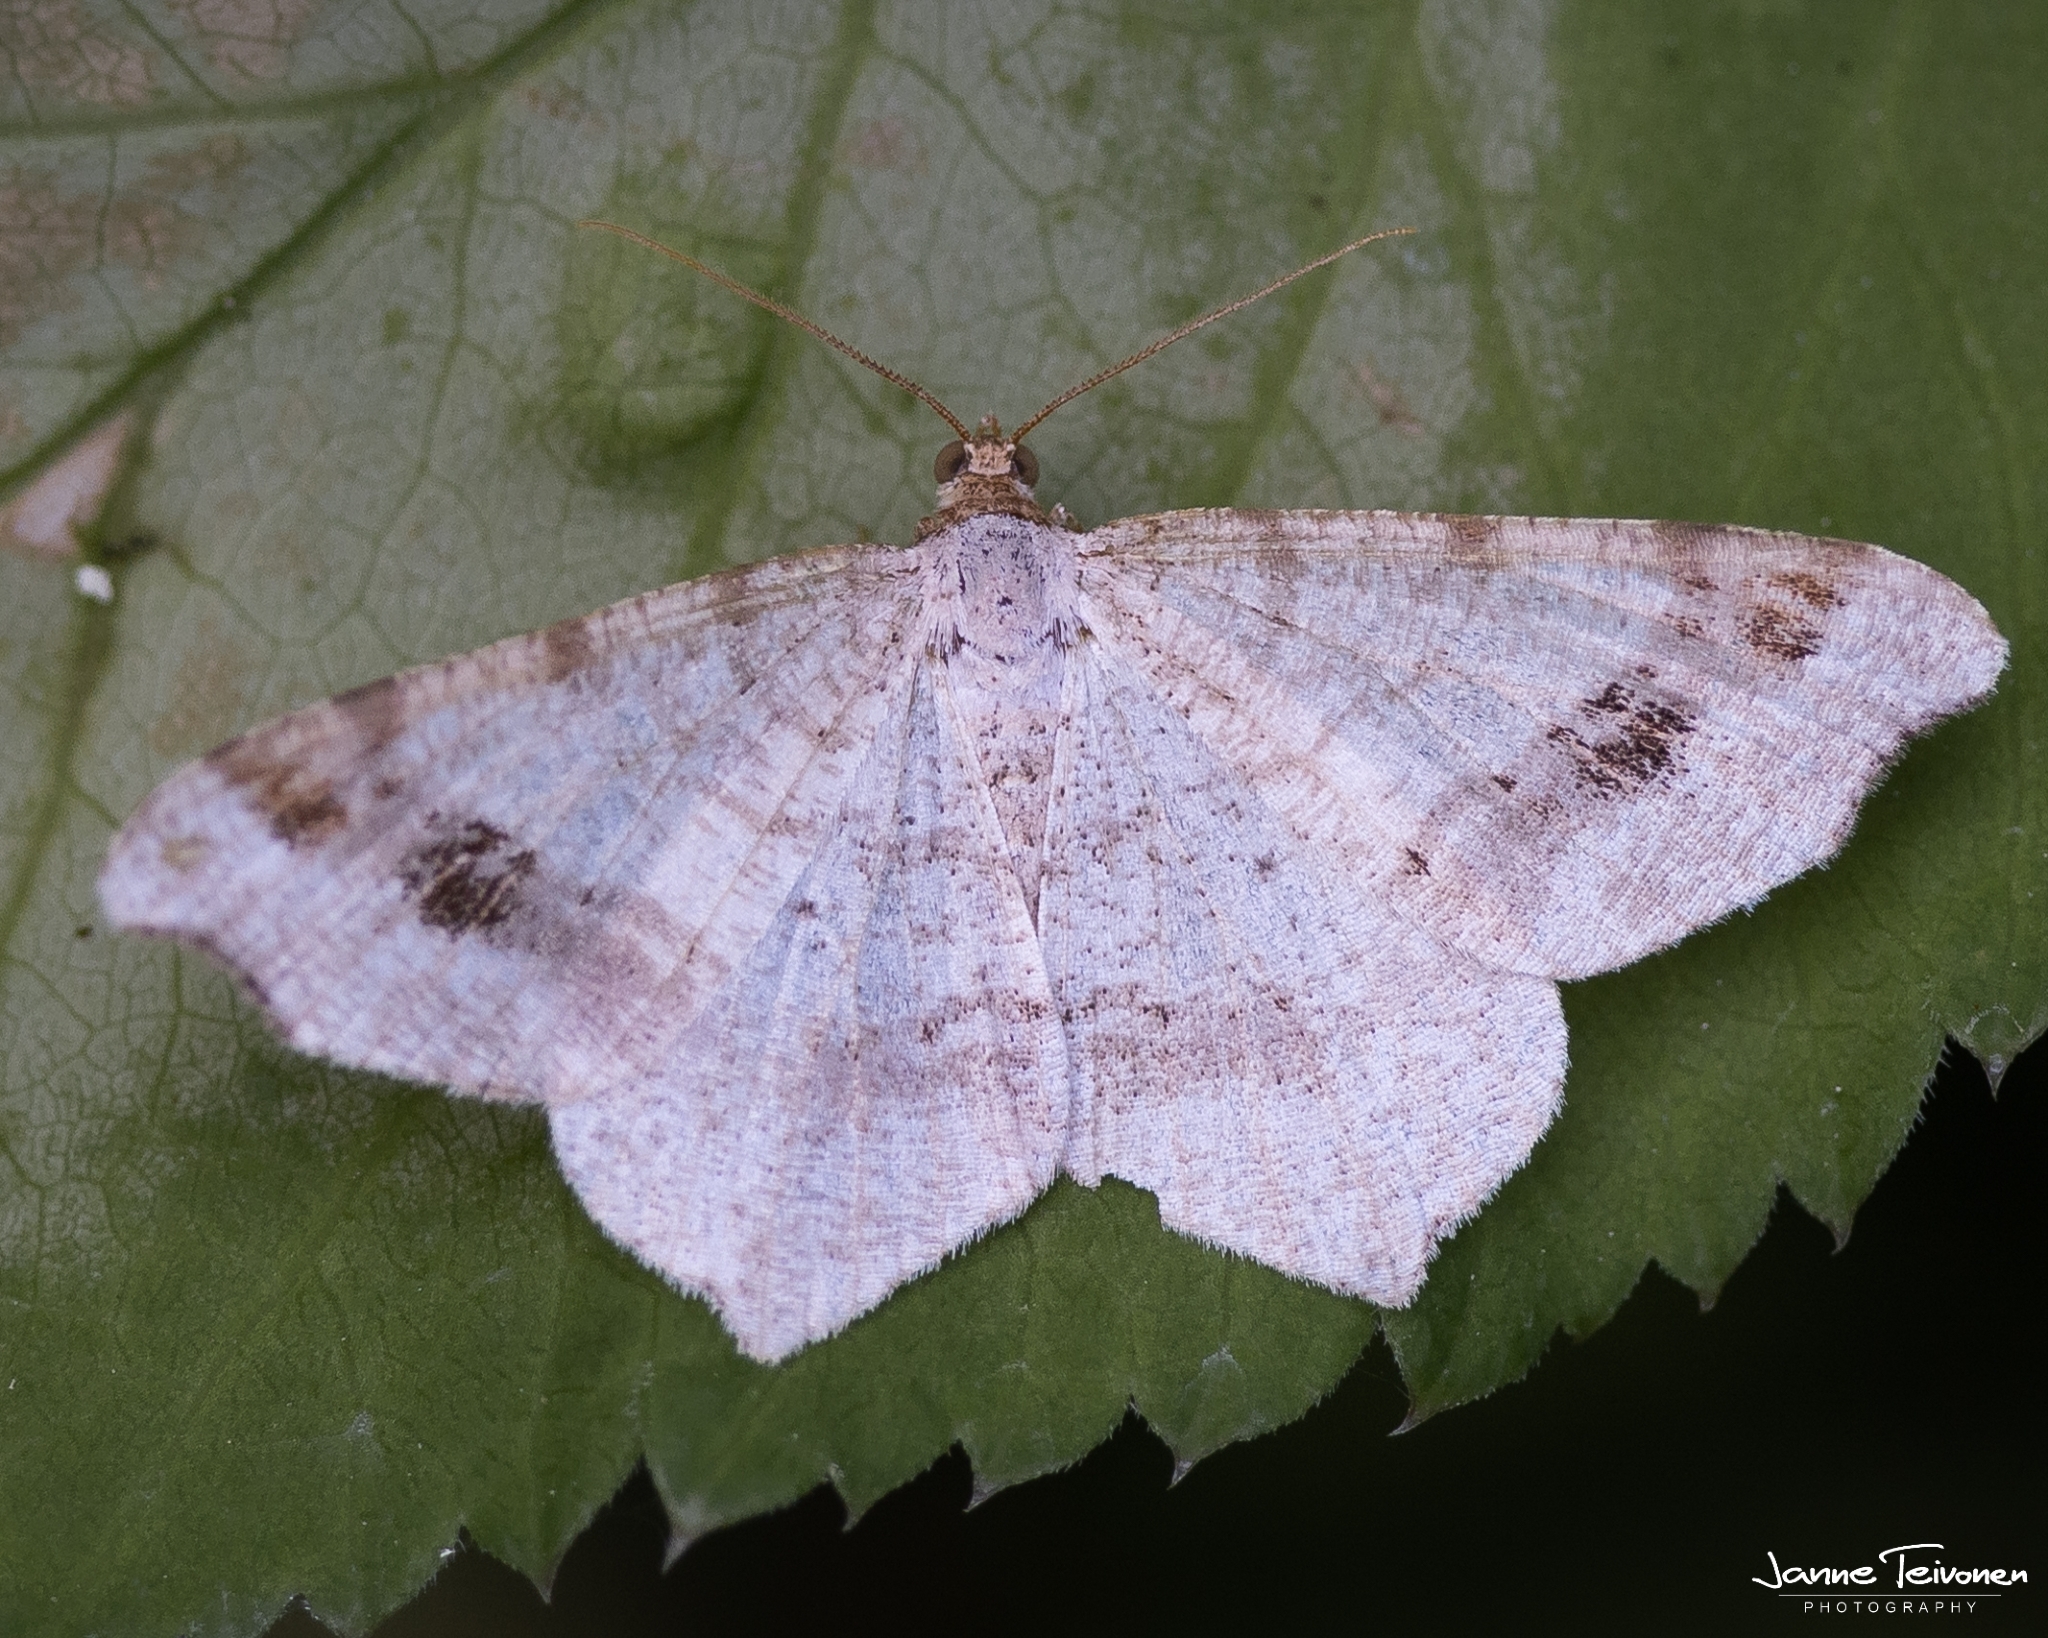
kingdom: Animalia
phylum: Arthropoda
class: Insecta
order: Lepidoptera
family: Geometridae
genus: Macaria
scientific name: Macaria alternata
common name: Sharp-angled peacock
